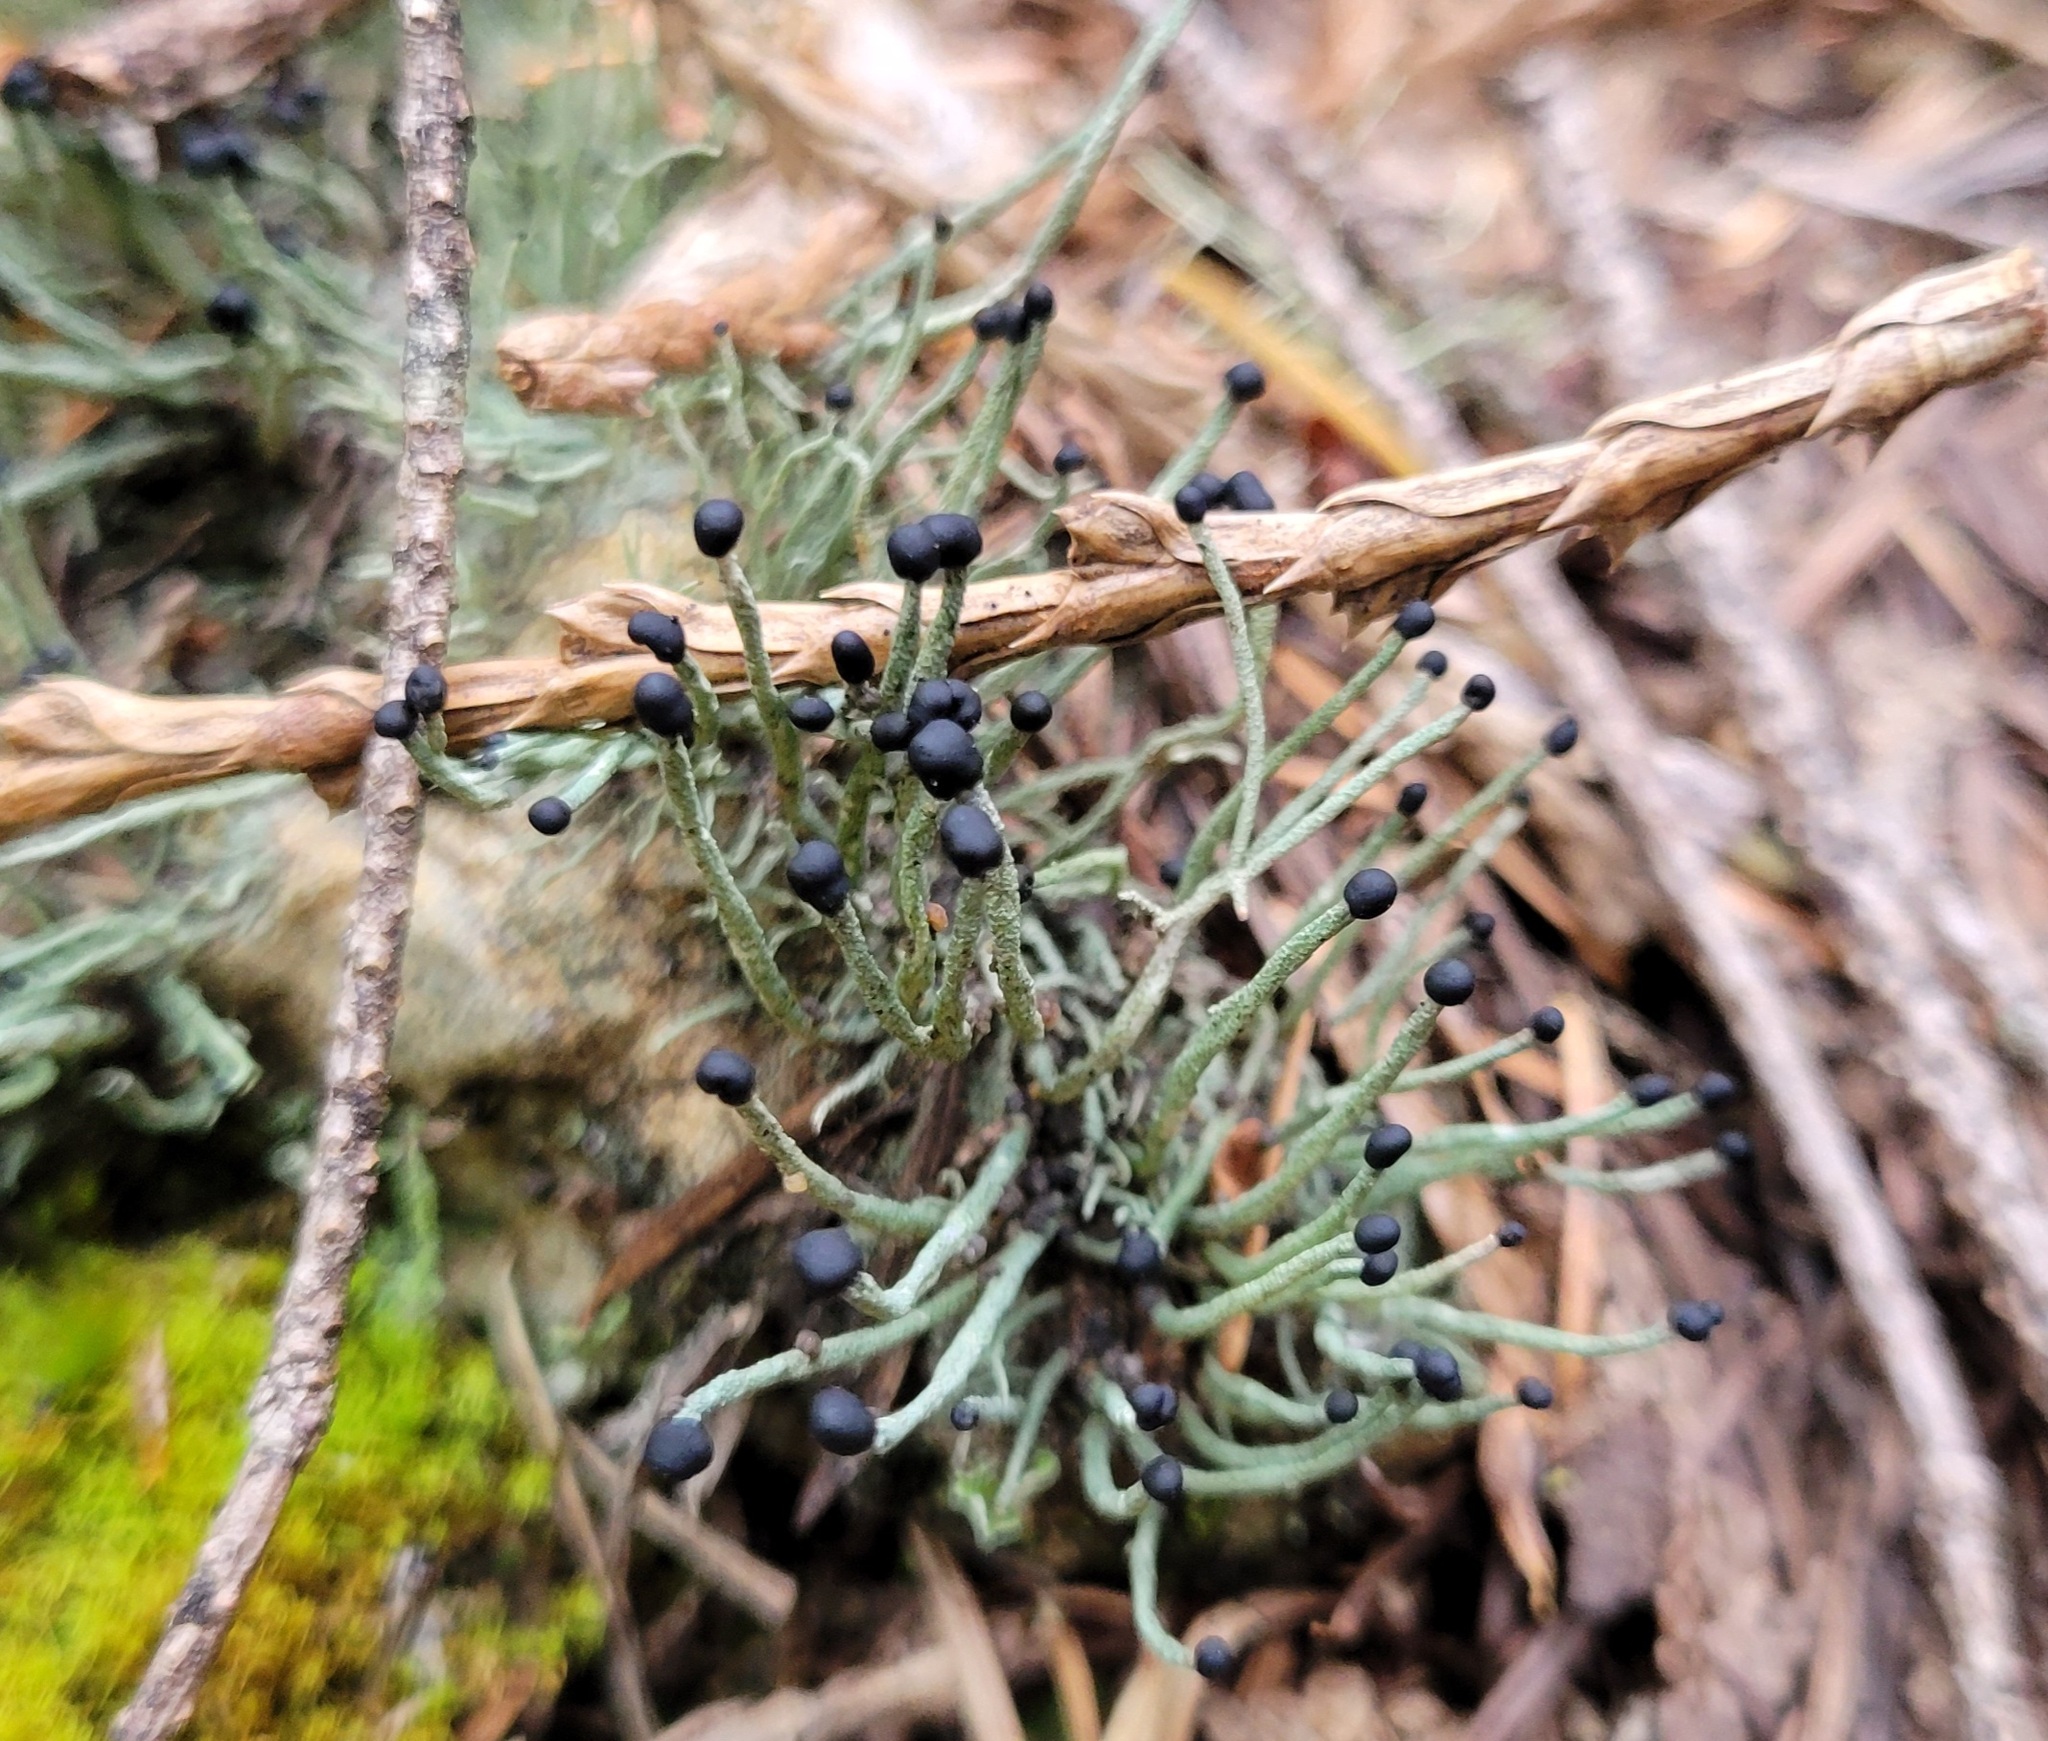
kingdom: Fungi
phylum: Ascomycota
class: Lecanoromycetes
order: Lecanorales
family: Cladoniaceae
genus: Pilophorus
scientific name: Pilophorus acicularis
